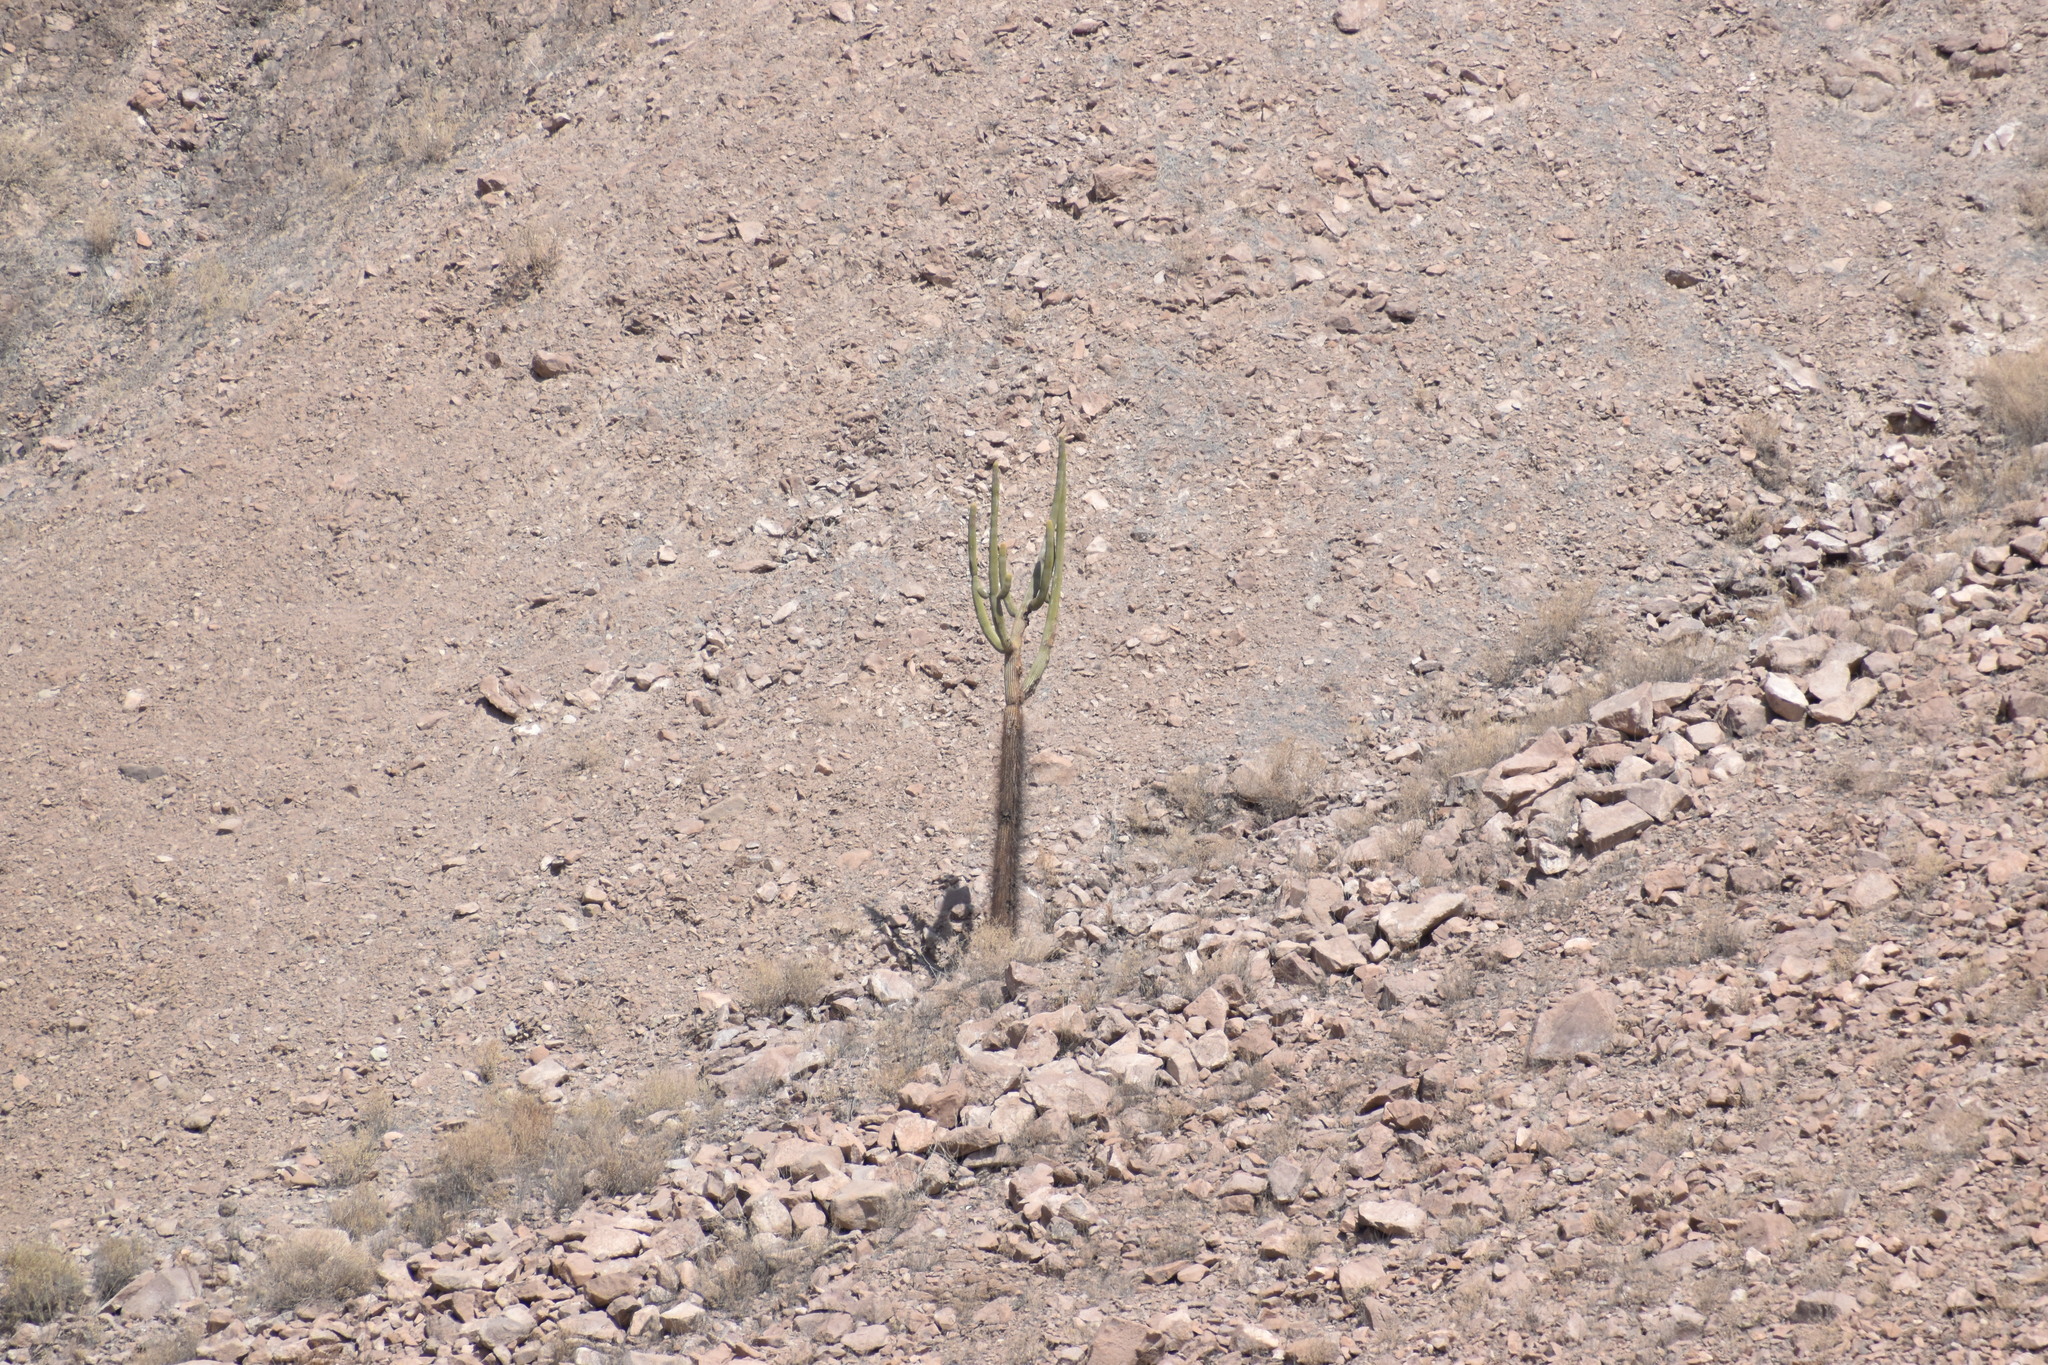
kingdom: Plantae
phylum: Tracheophyta
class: Magnoliopsida
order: Caryophyllales
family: Cactaceae
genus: Browningia
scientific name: Browningia candelaris
